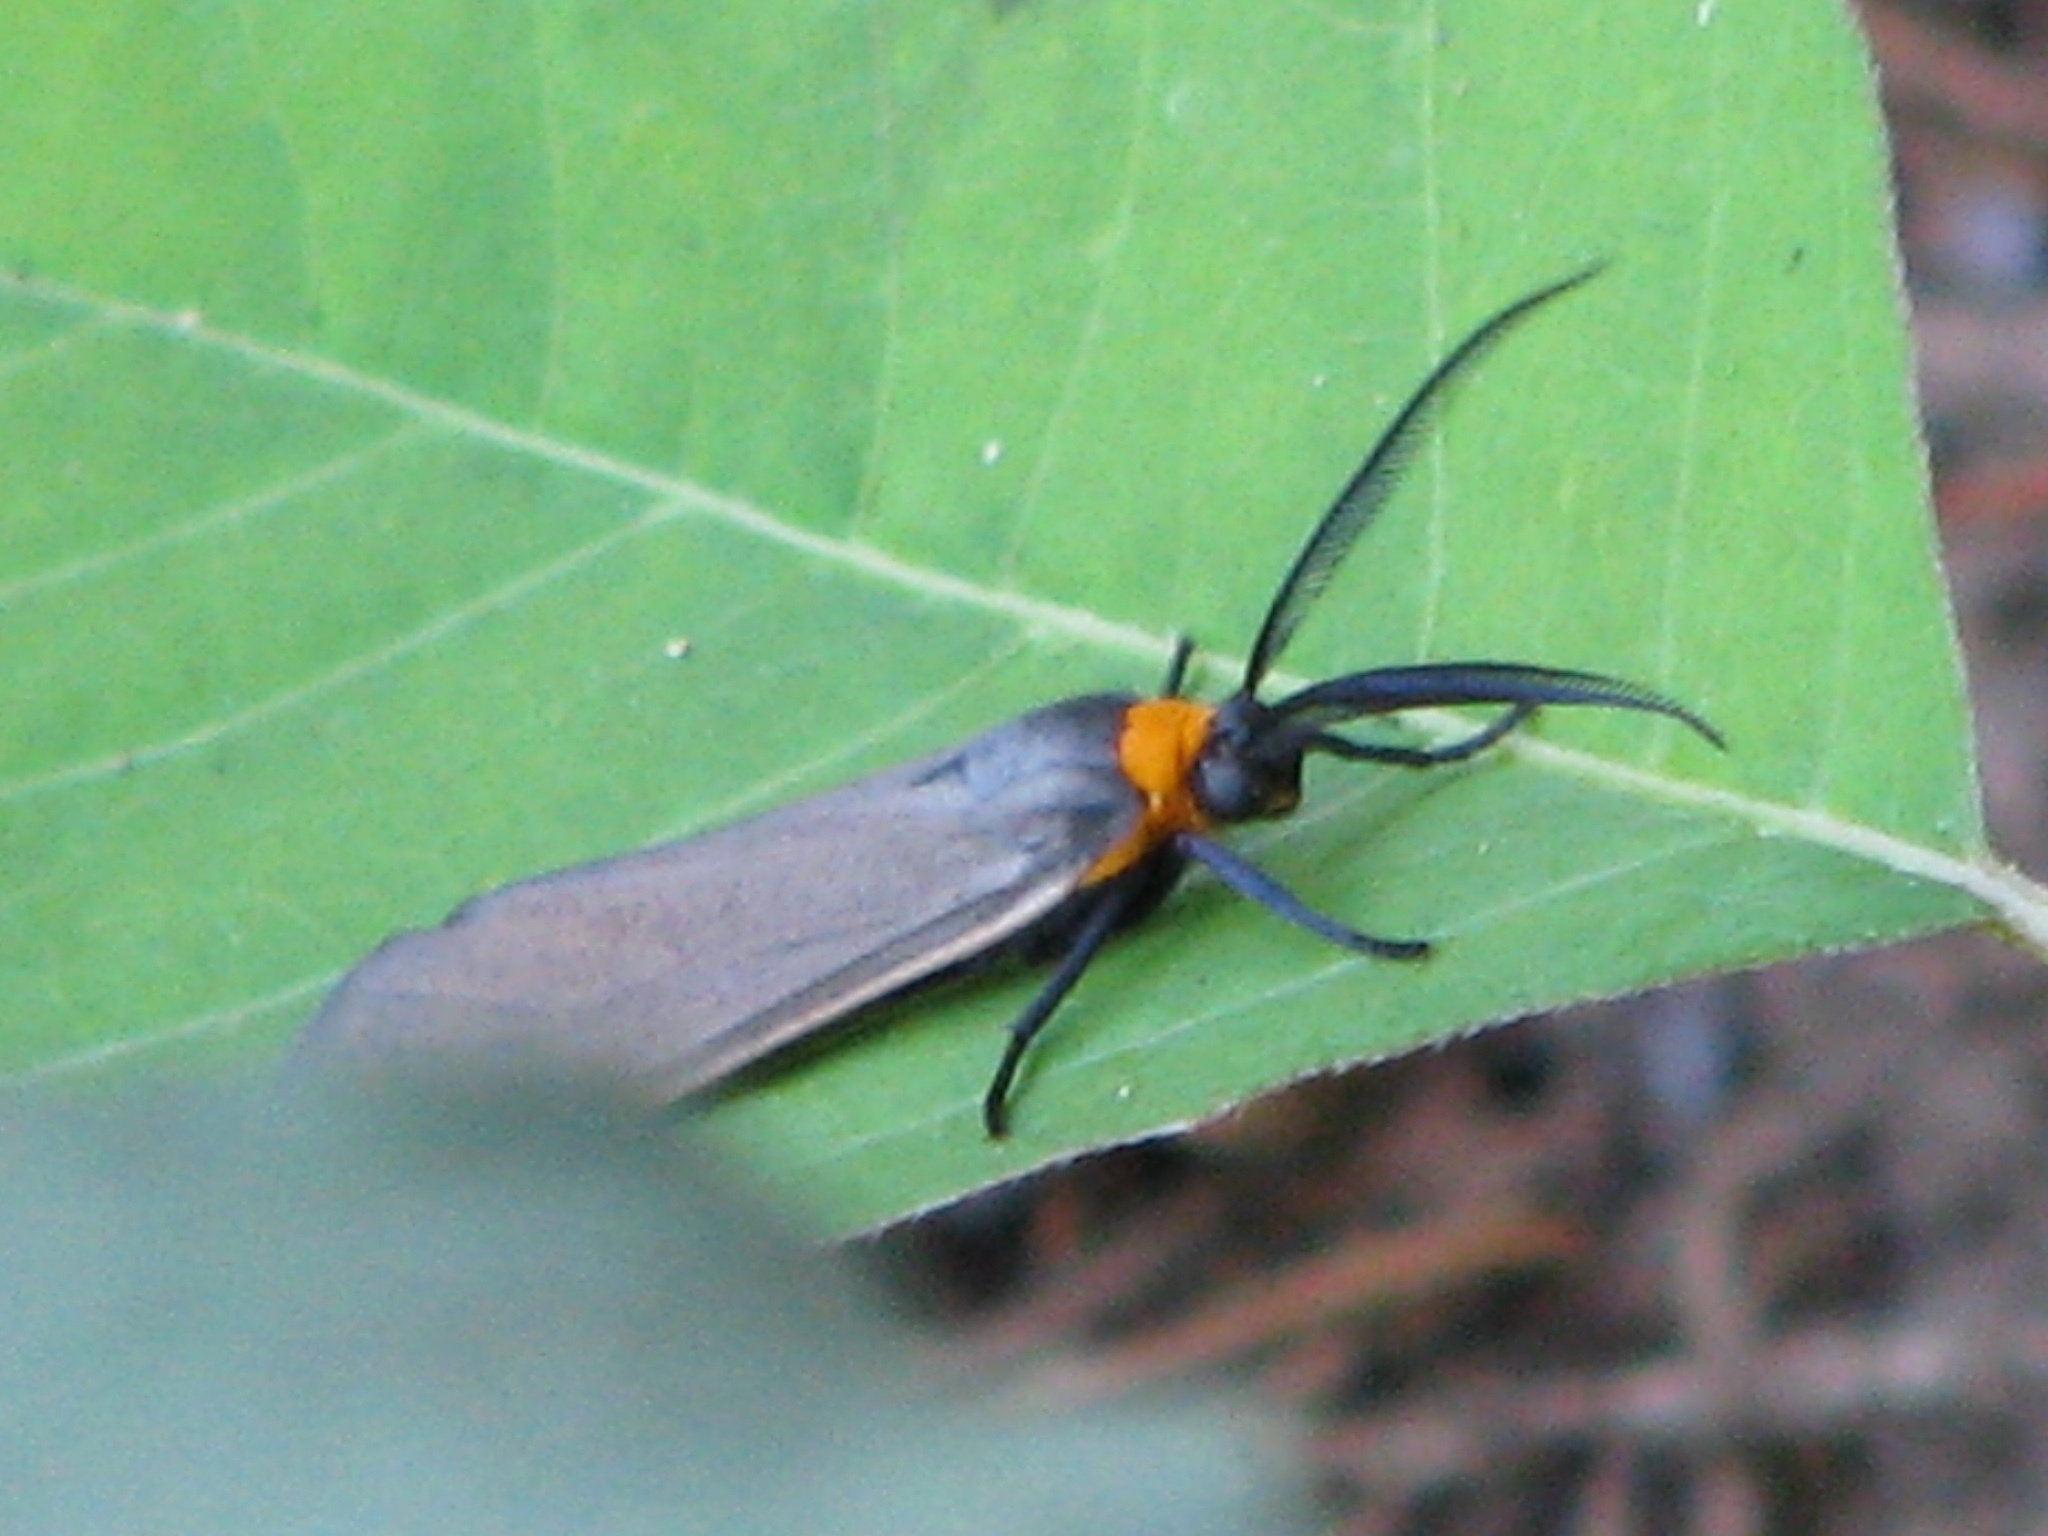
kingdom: Animalia
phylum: Arthropoda
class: Insecta
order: Lepidoptera
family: Erebidae
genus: Cisseps
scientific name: Cisseps fulvicollis
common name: Yellow-collared scape moth
